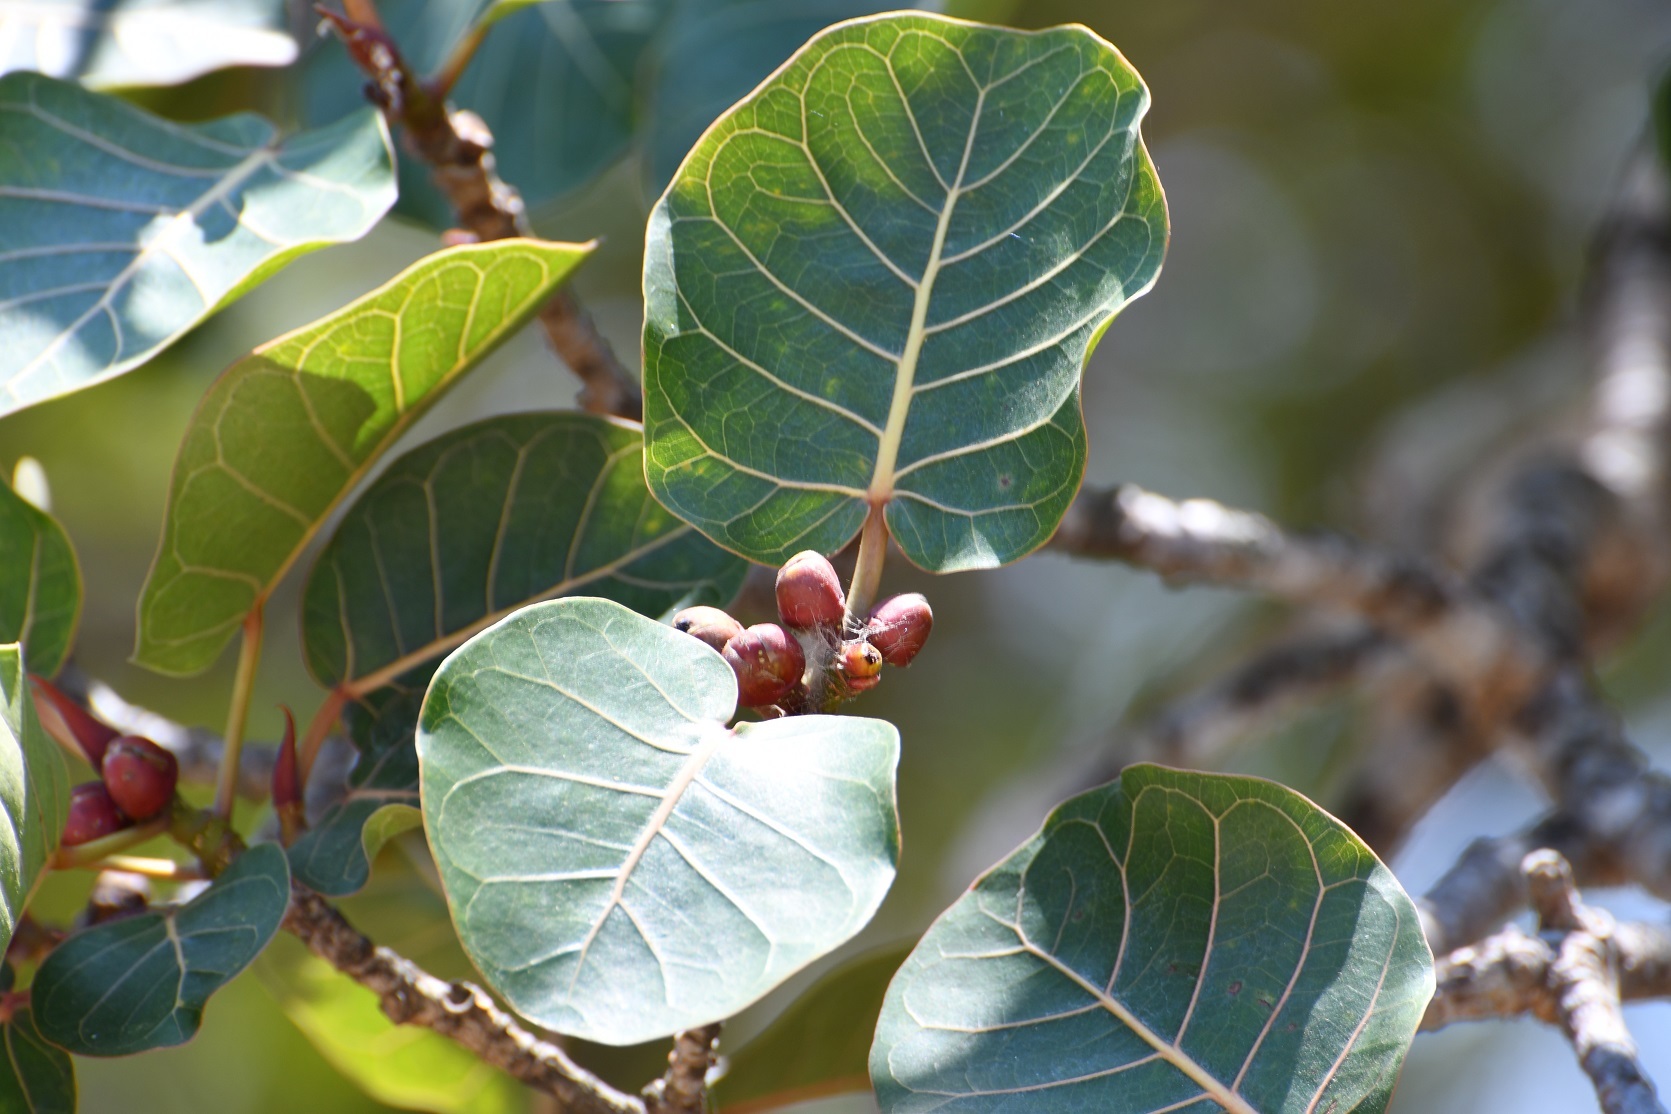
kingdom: Plantae
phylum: Tracheophyta
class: Magnoliopsida
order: Rosales
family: Moraceae
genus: Ficus
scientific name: Ficus aurea
